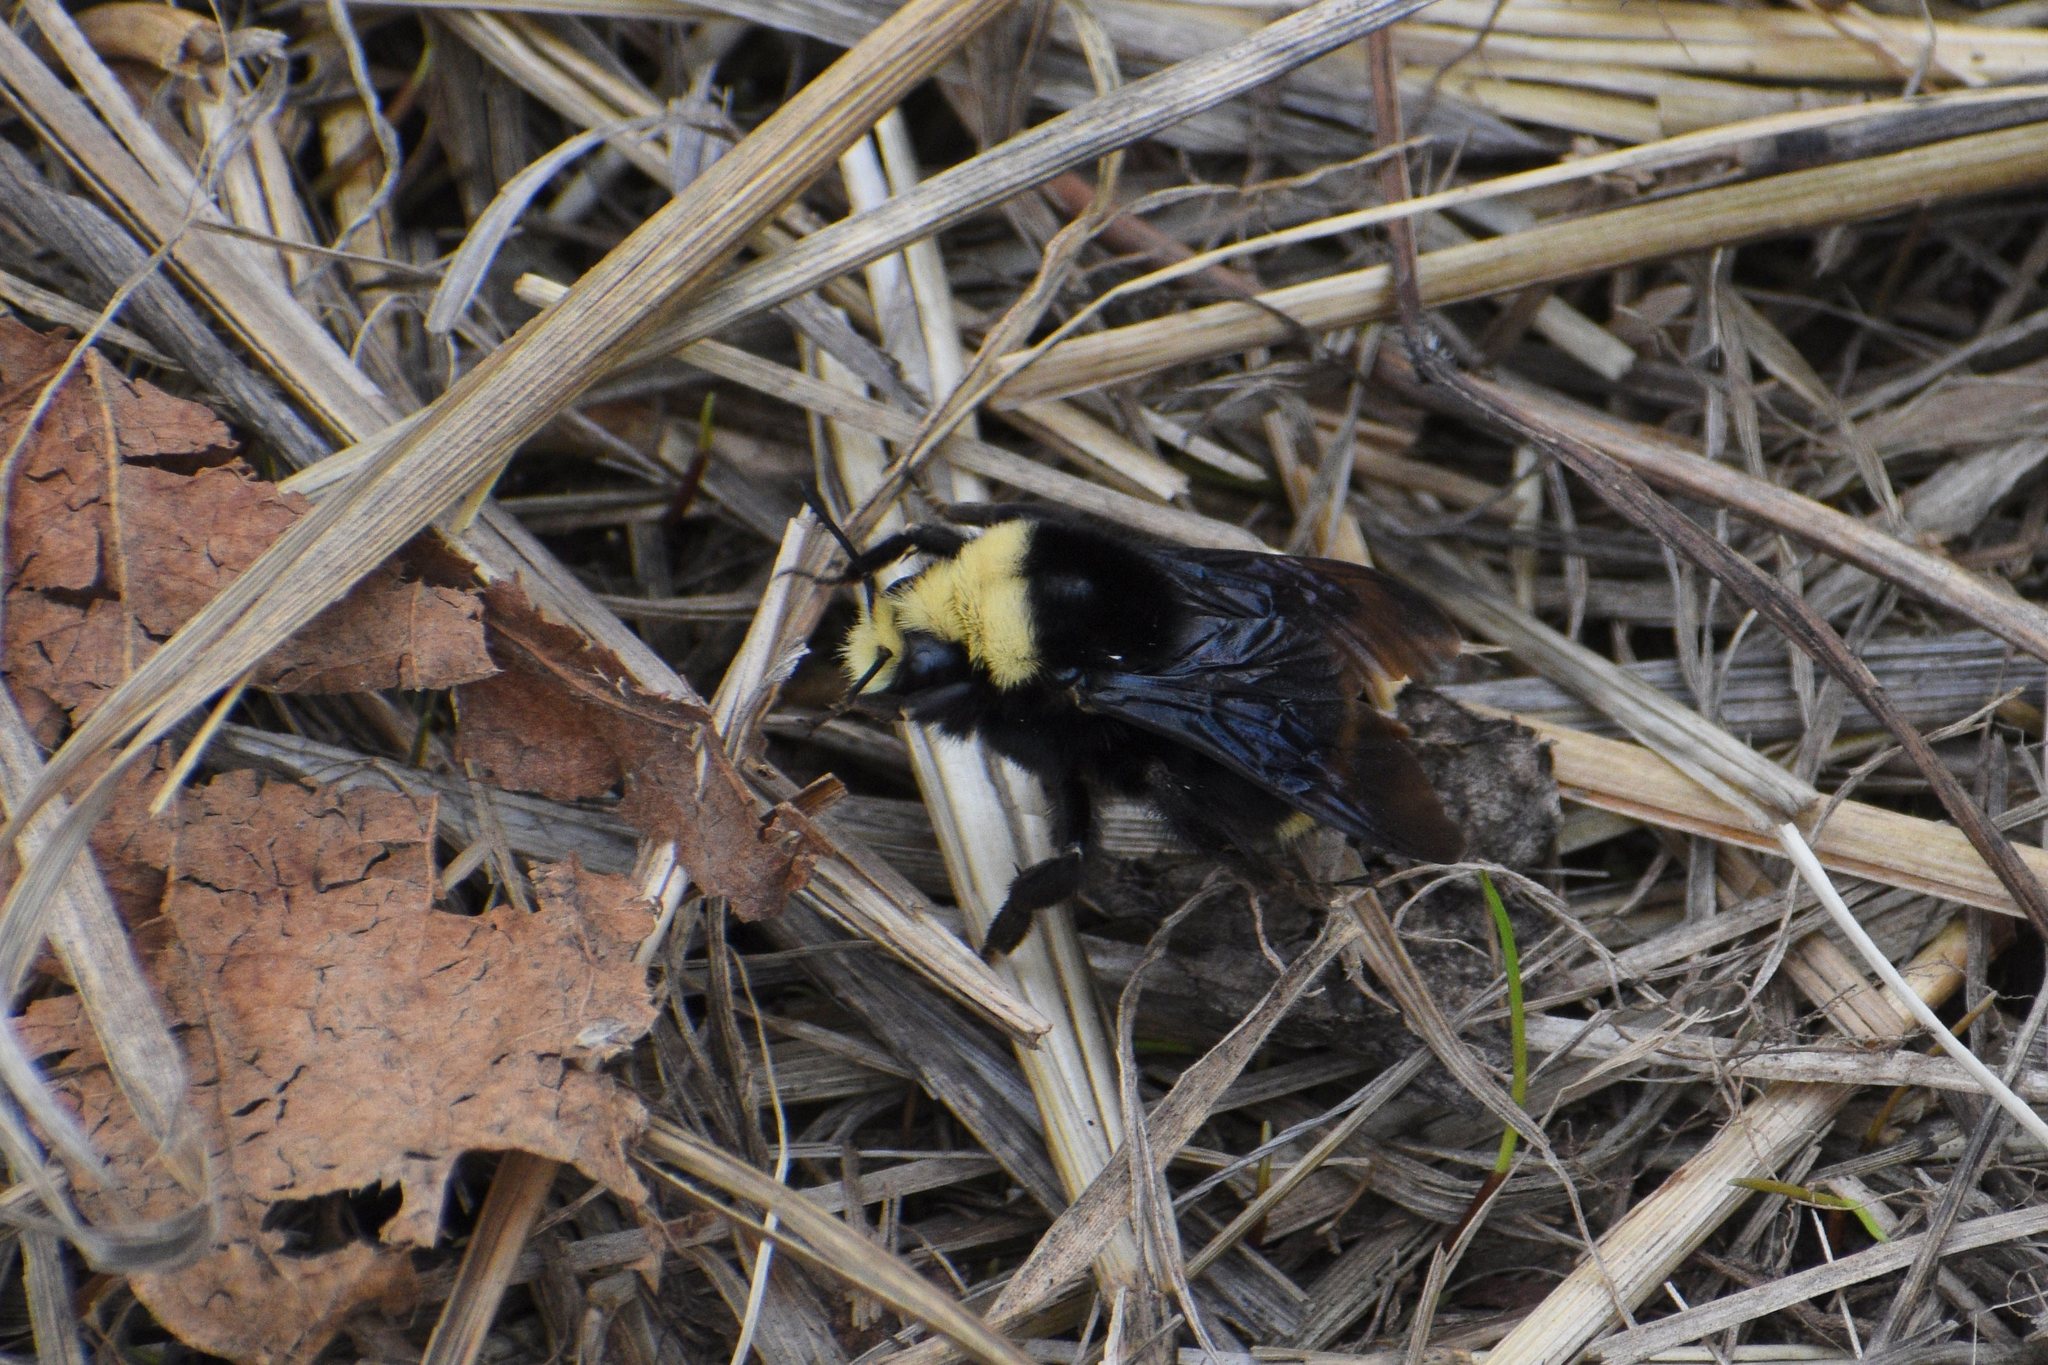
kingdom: Animalia
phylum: Arthropoda
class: Insecta
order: Hymenoptera
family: Apidae
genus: Pyrobombus
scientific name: Pyrobombus
